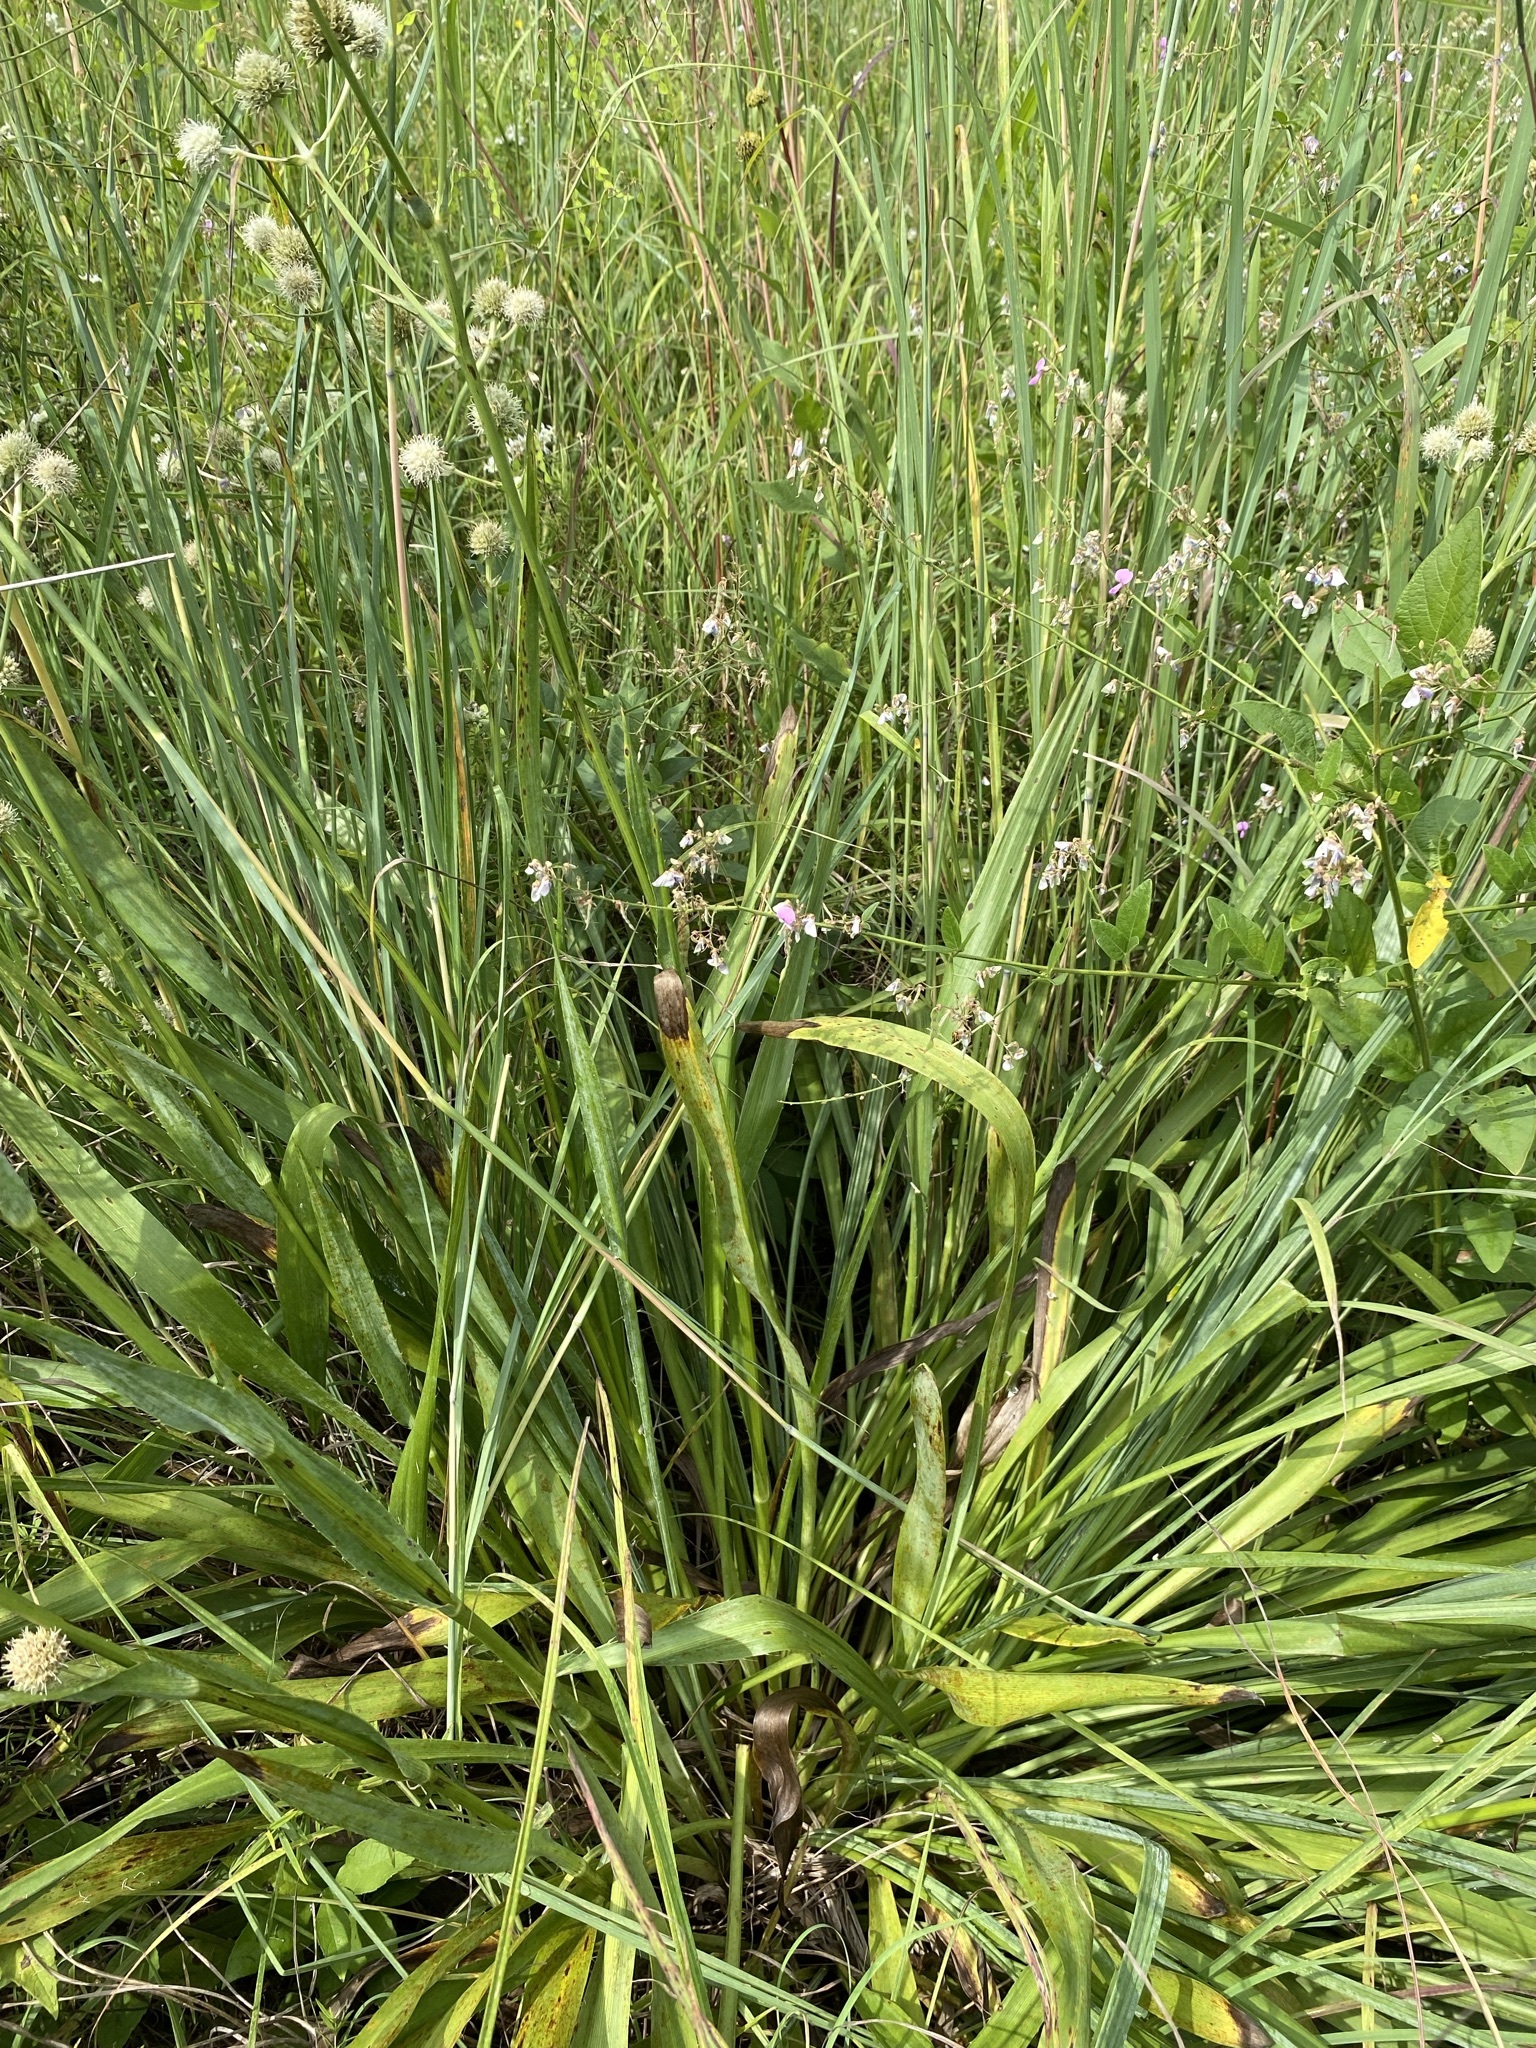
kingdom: Plantae
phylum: Tracheophyta
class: Magnoliopsida
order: Apiales
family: Apiaceae
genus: Eryngium
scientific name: Eryngium yuccifolium
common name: Button eryngo
